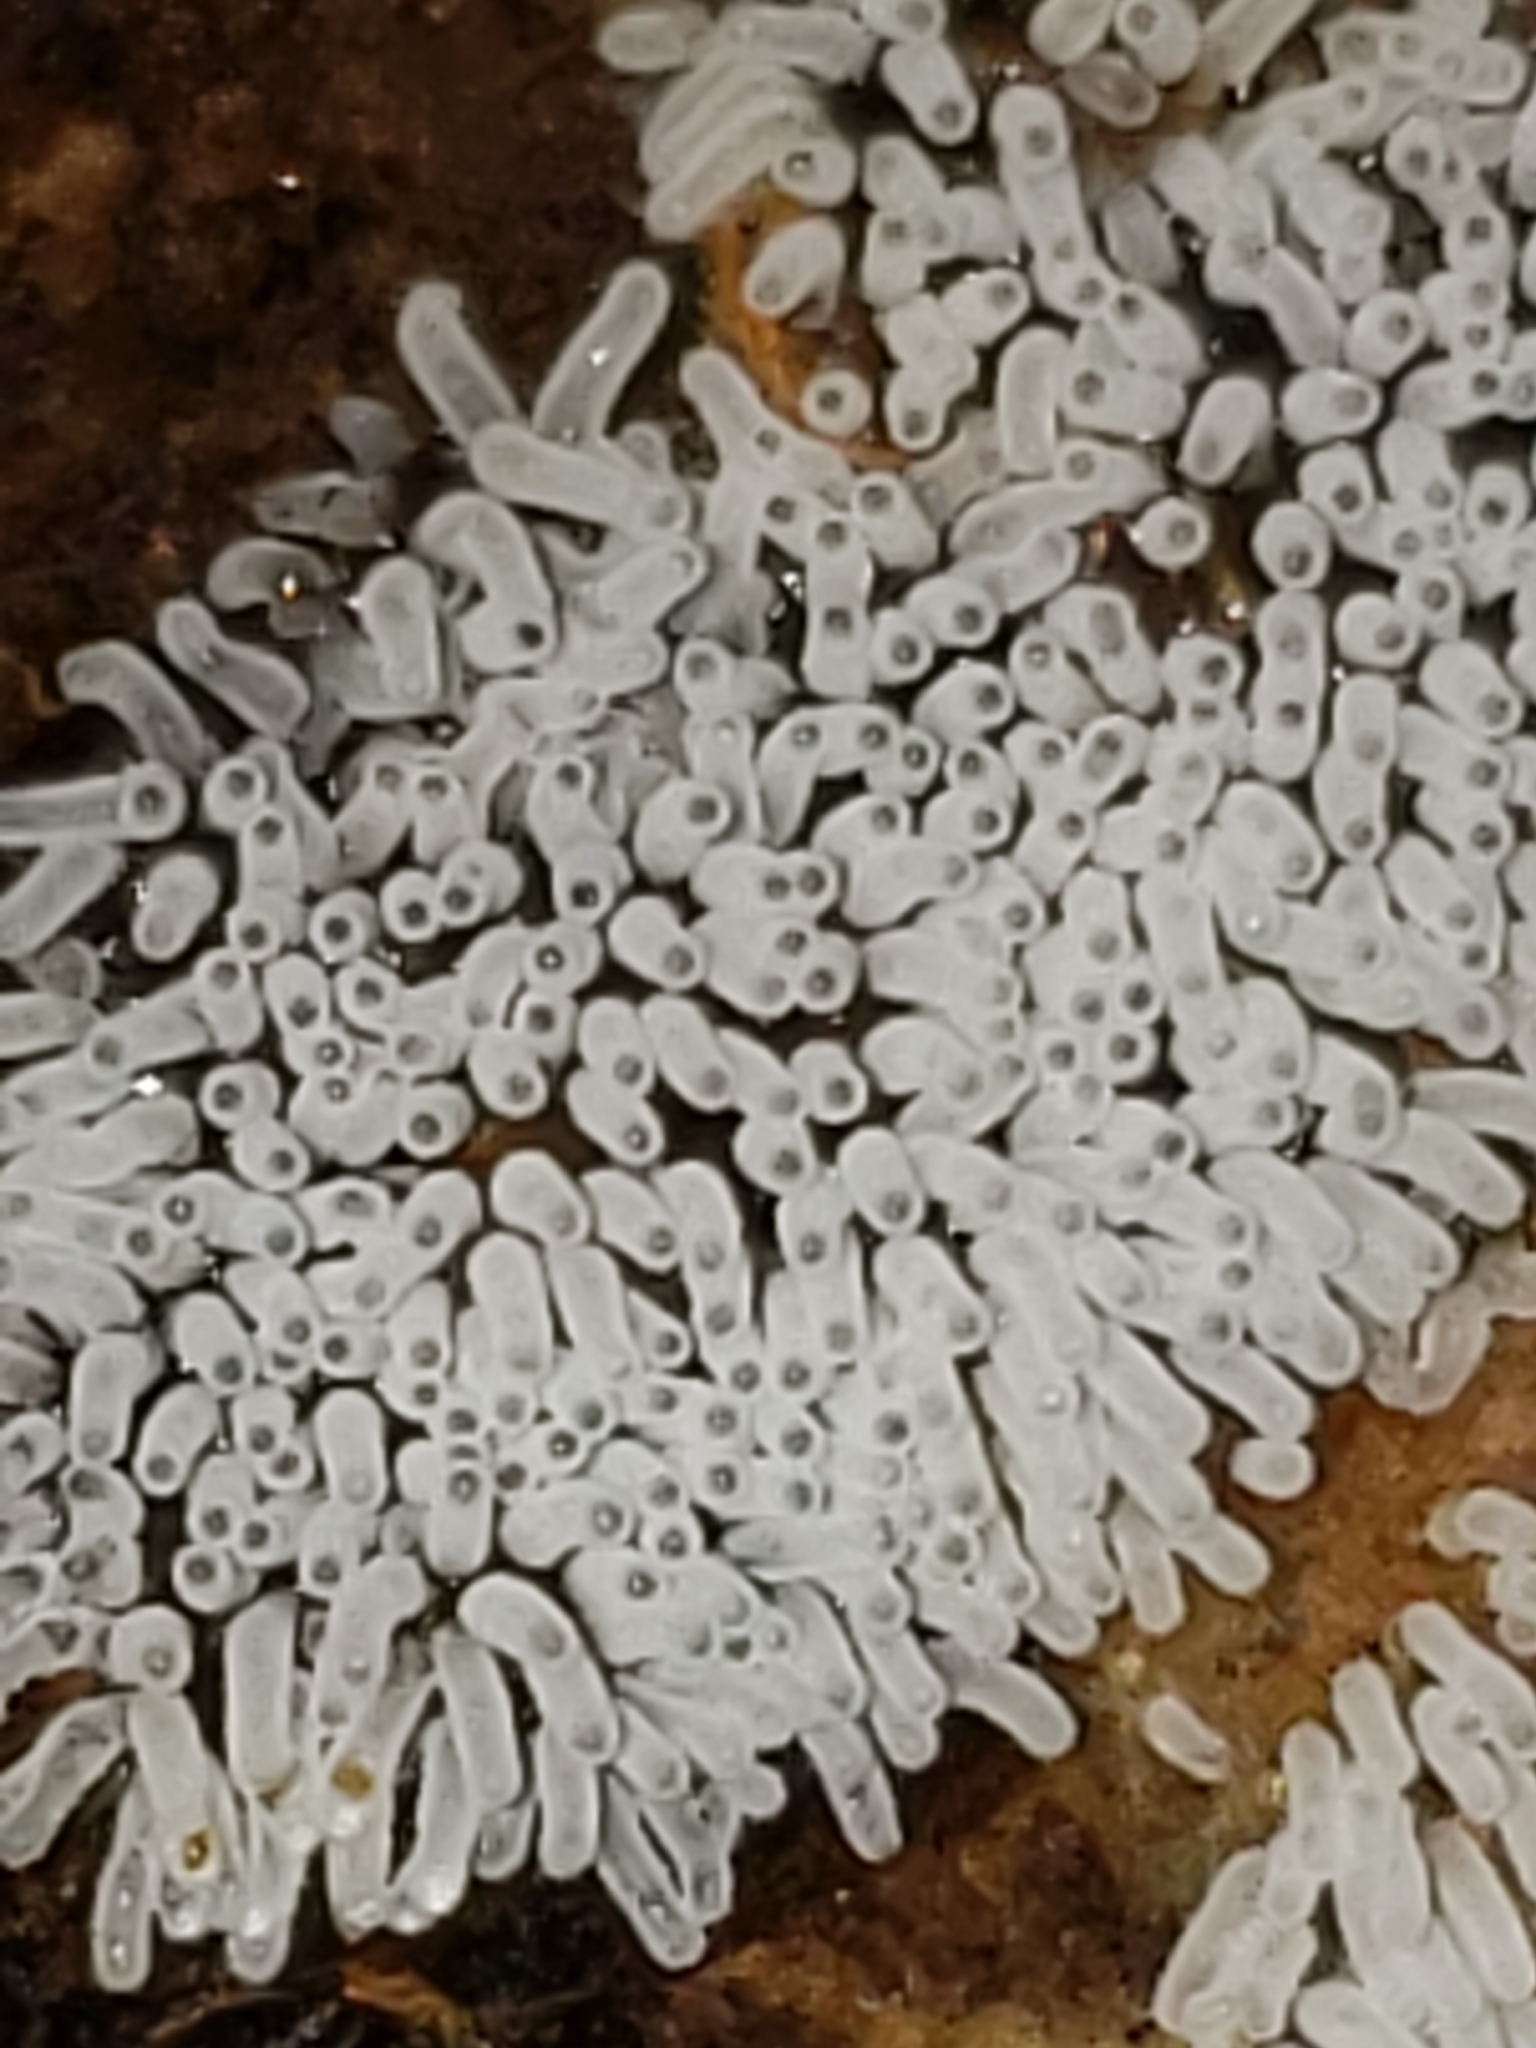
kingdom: Protozoa
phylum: Mycetozoa
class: Protosteliomycetes
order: Ceratiomyxales
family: Ceratiomyxaceae
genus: Ceratiomyxa
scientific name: Ceratiomyxa fruticulosa
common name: Honeycomb coral slime mold
